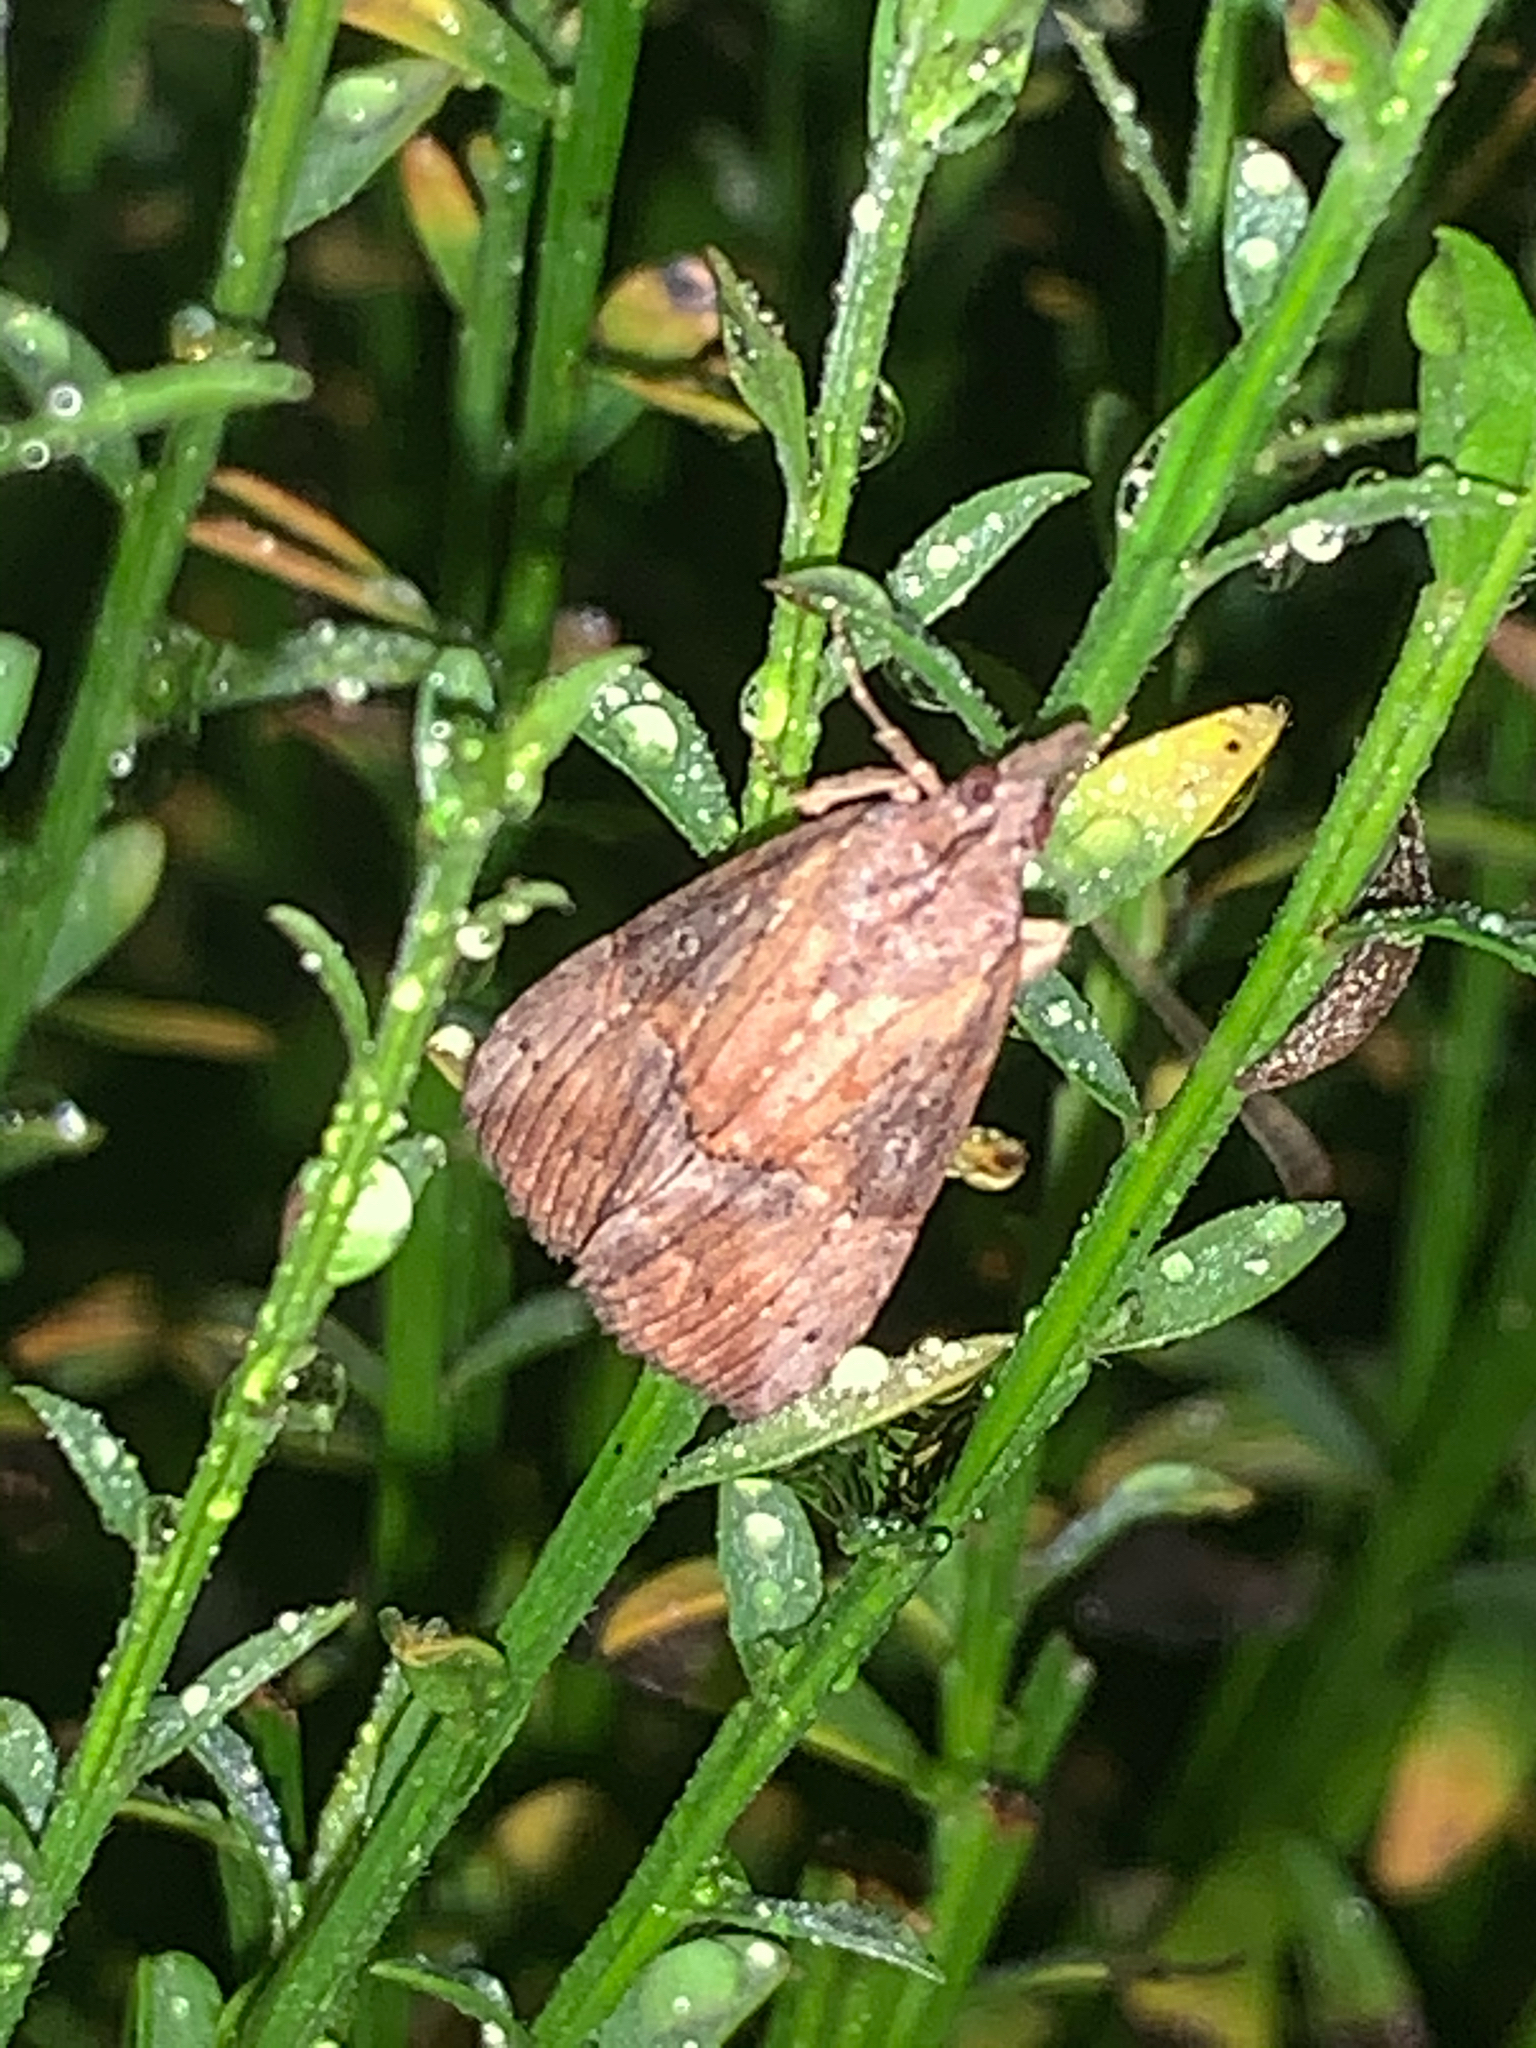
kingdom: Animalia
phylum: Arthropoda
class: Insecta
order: Lepidoptera
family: Erebidae
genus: Hypena
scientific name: Hypena scabra
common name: Green cloverworm
